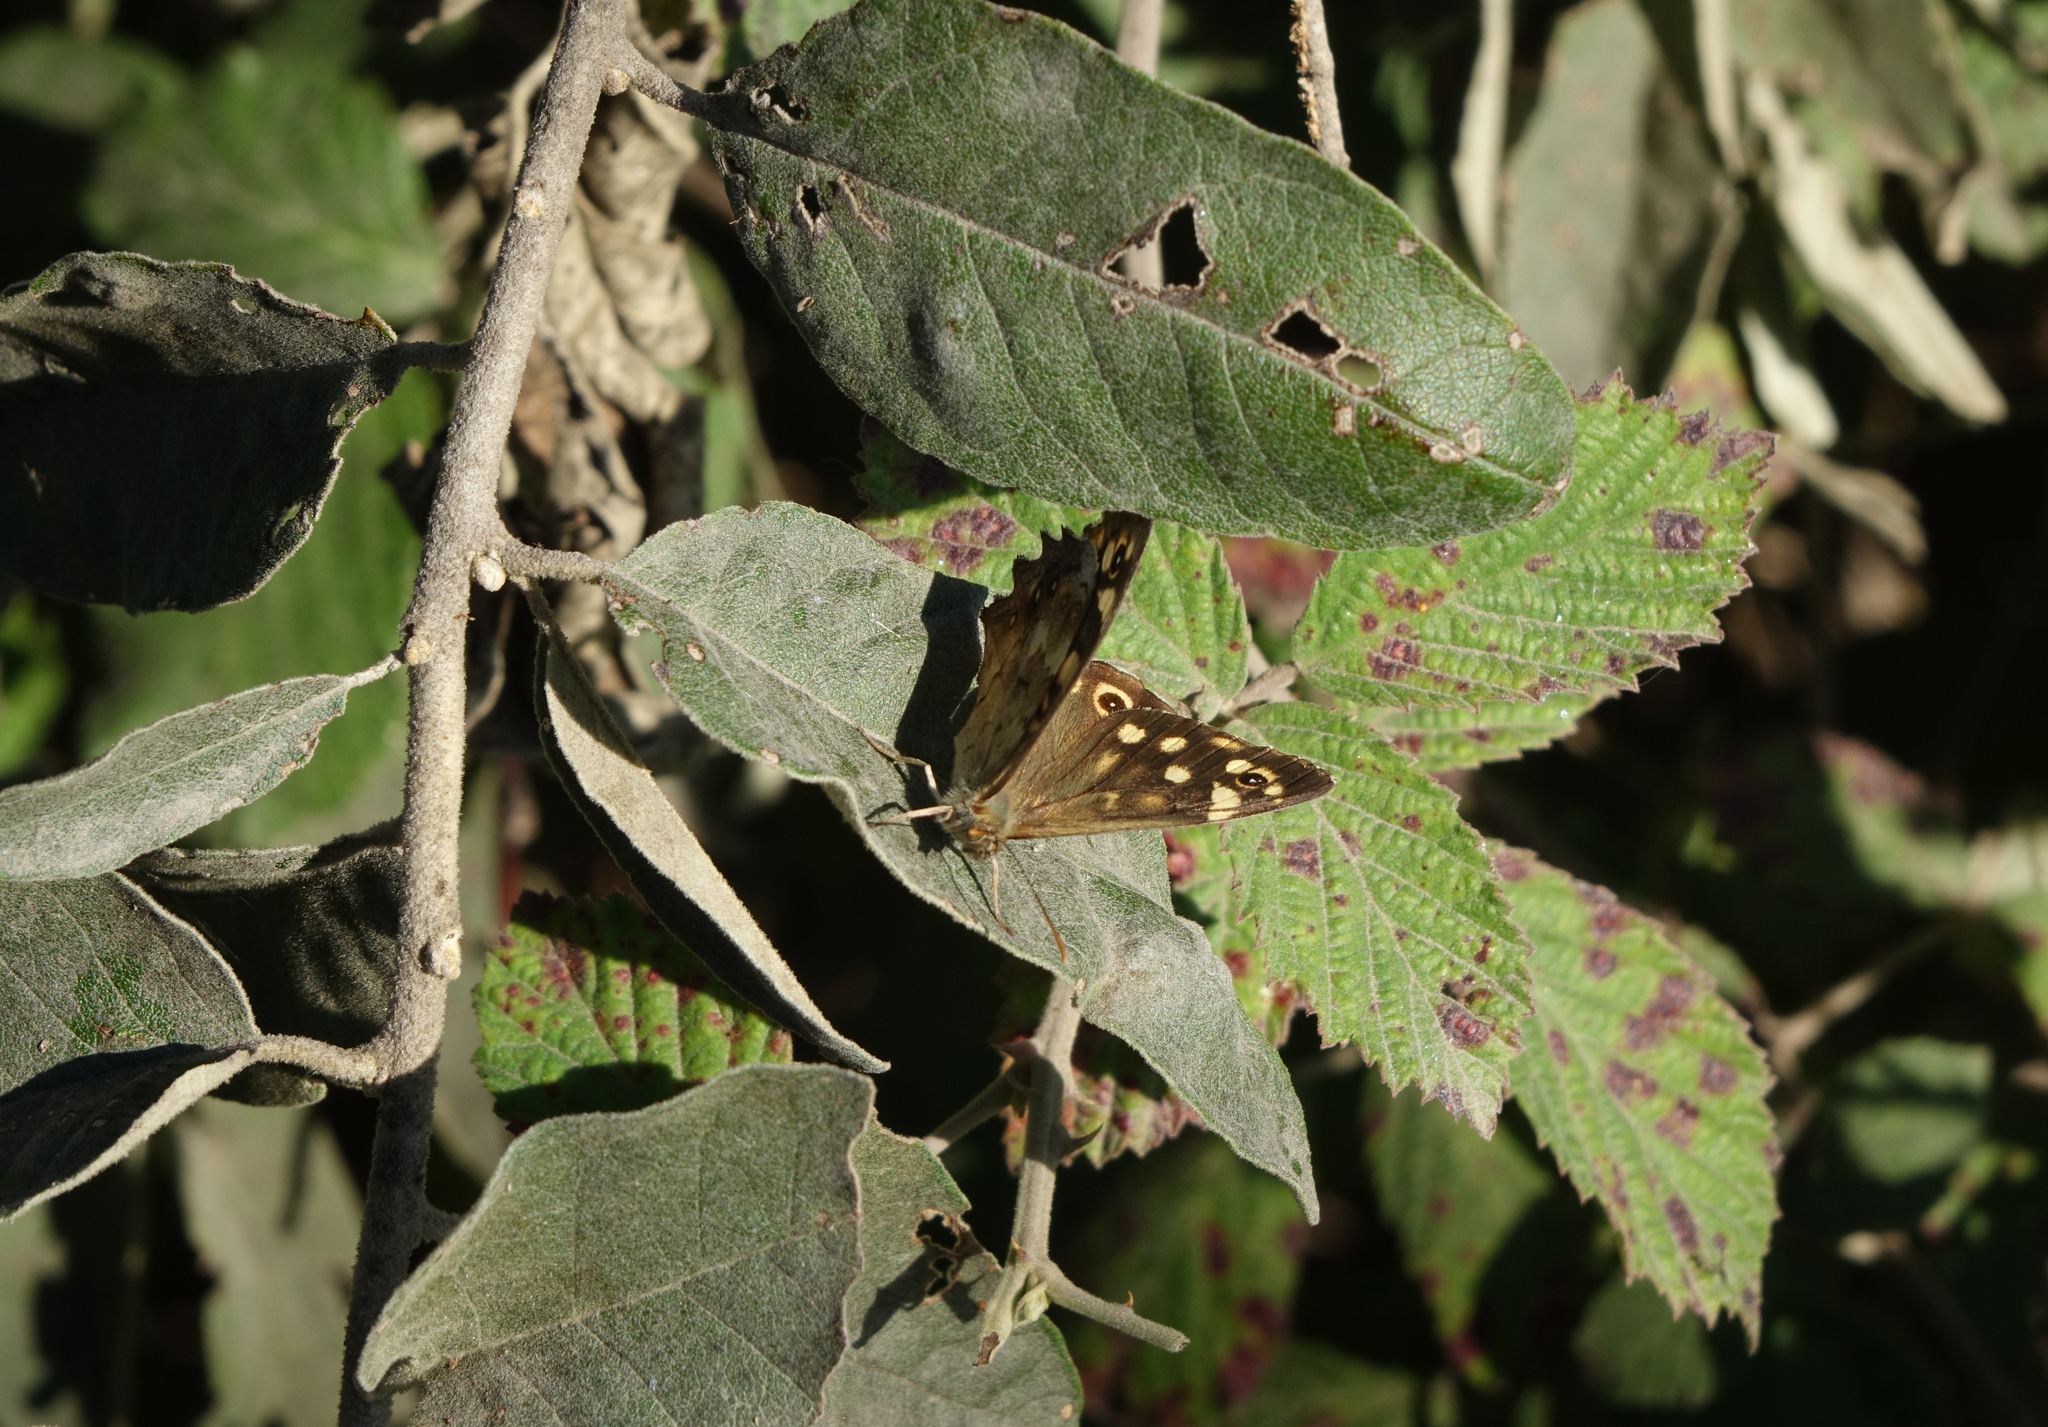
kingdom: Animalia
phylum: Arthropoda
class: Insecta
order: Lepidoptera
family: Nymphalidae
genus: Pararge
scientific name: Pararge aegeria
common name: Speckled wood
